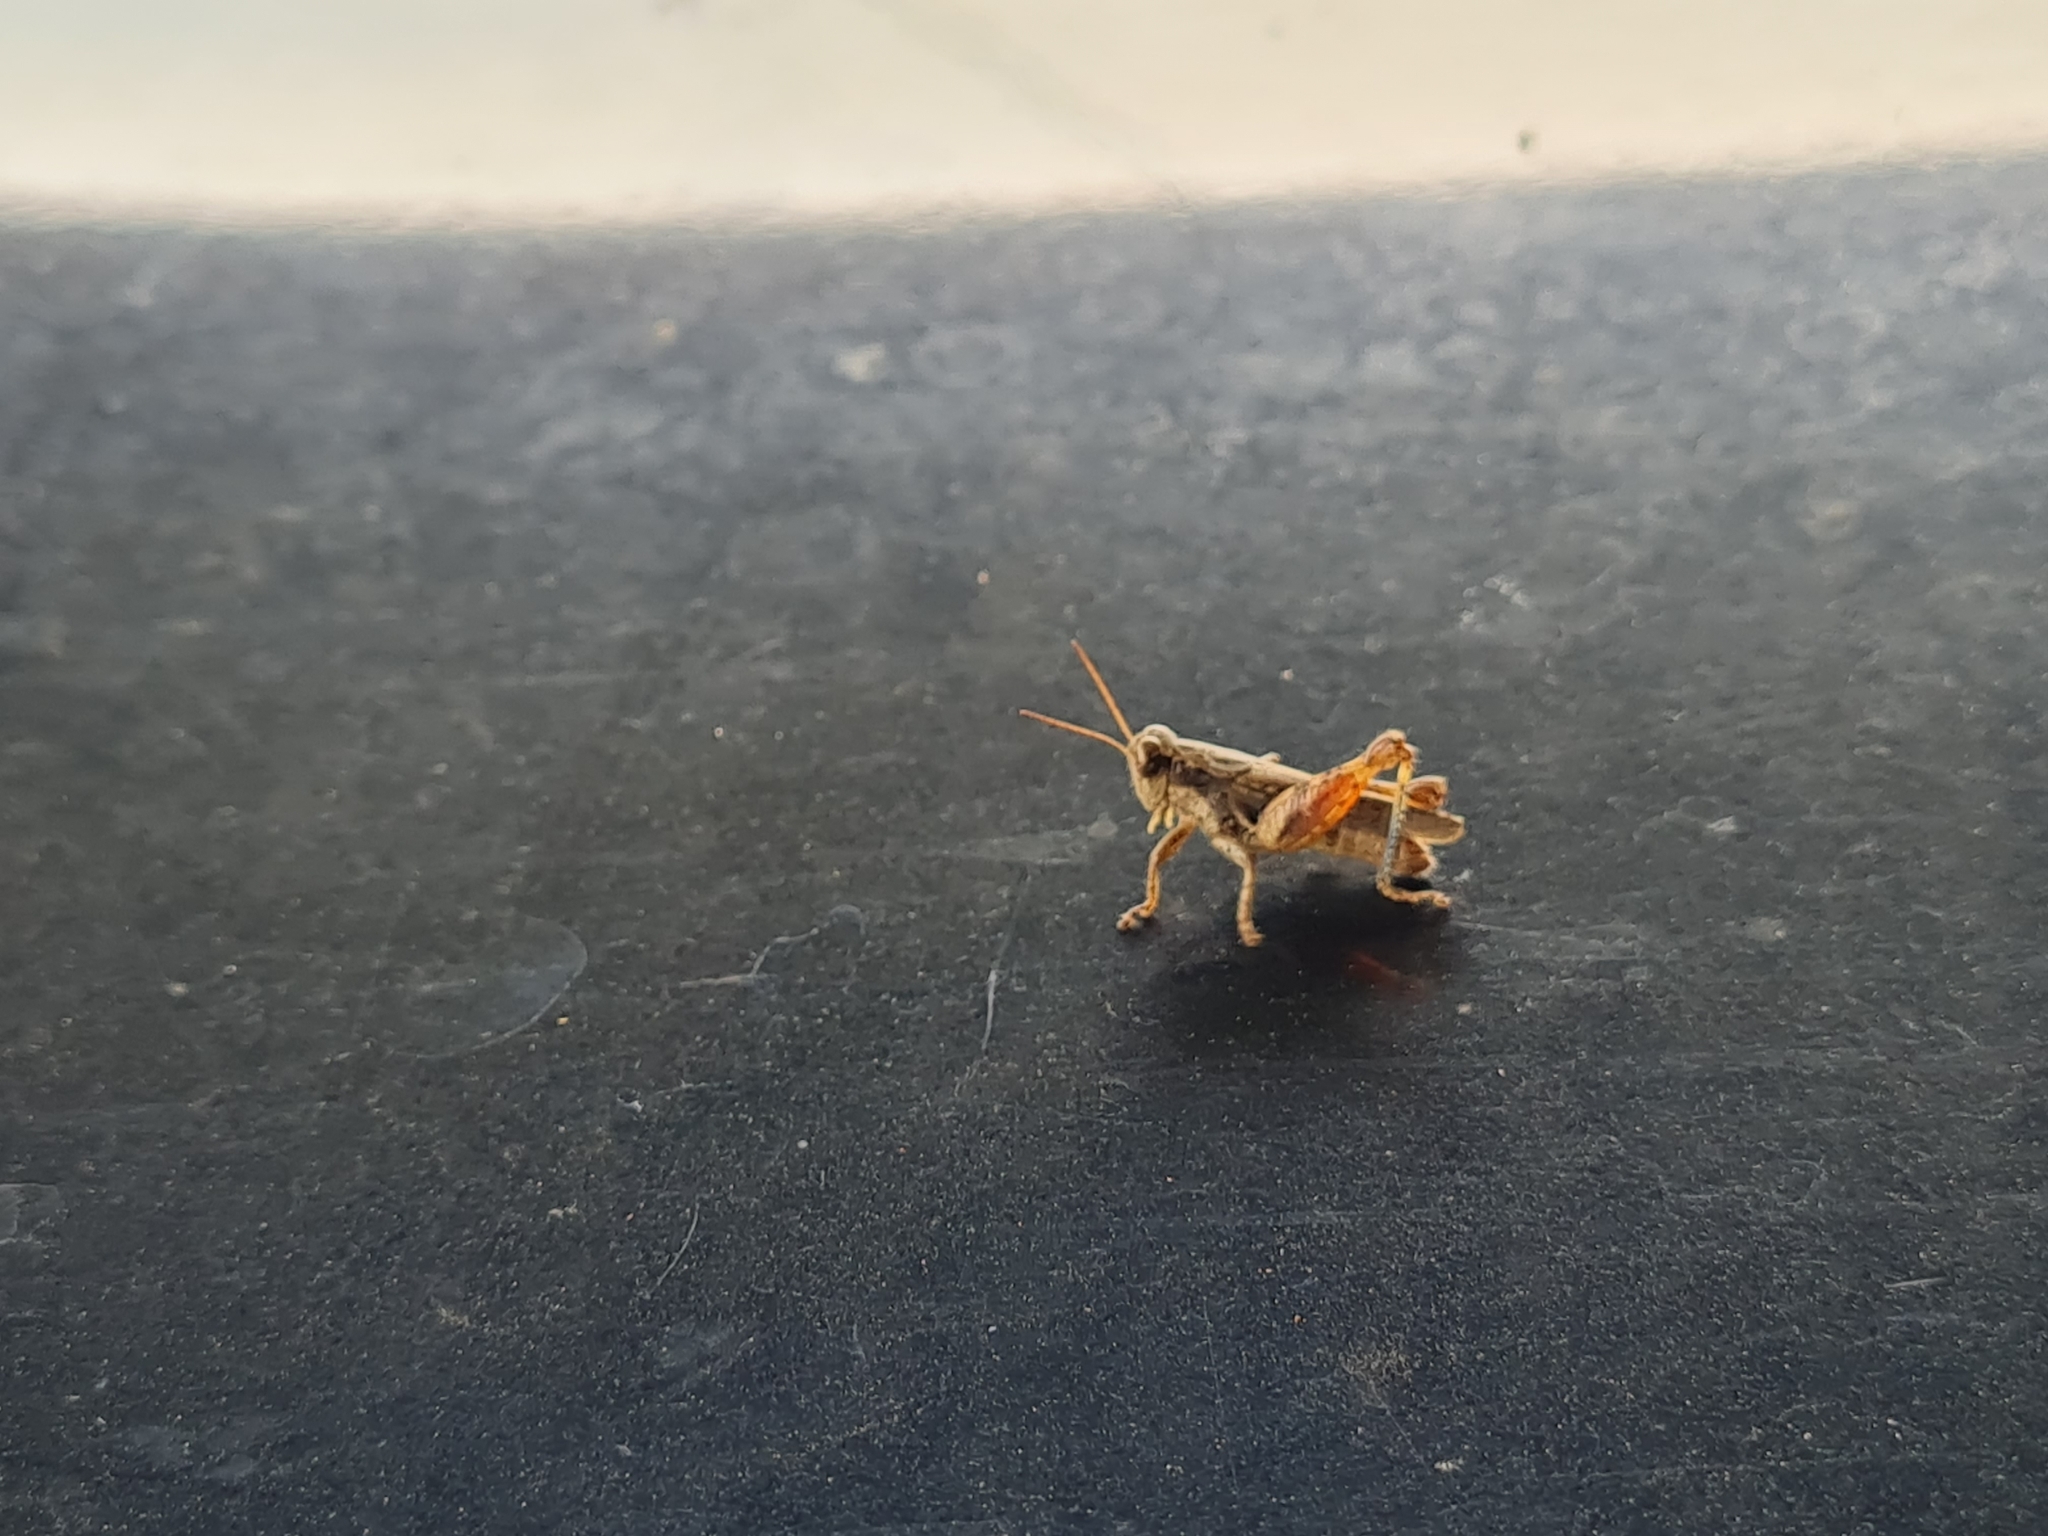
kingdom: Animalia
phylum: Arthropoda
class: Insecta
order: Orthoptera
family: Acrididae
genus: Aidemona
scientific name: Aidemona azteca
